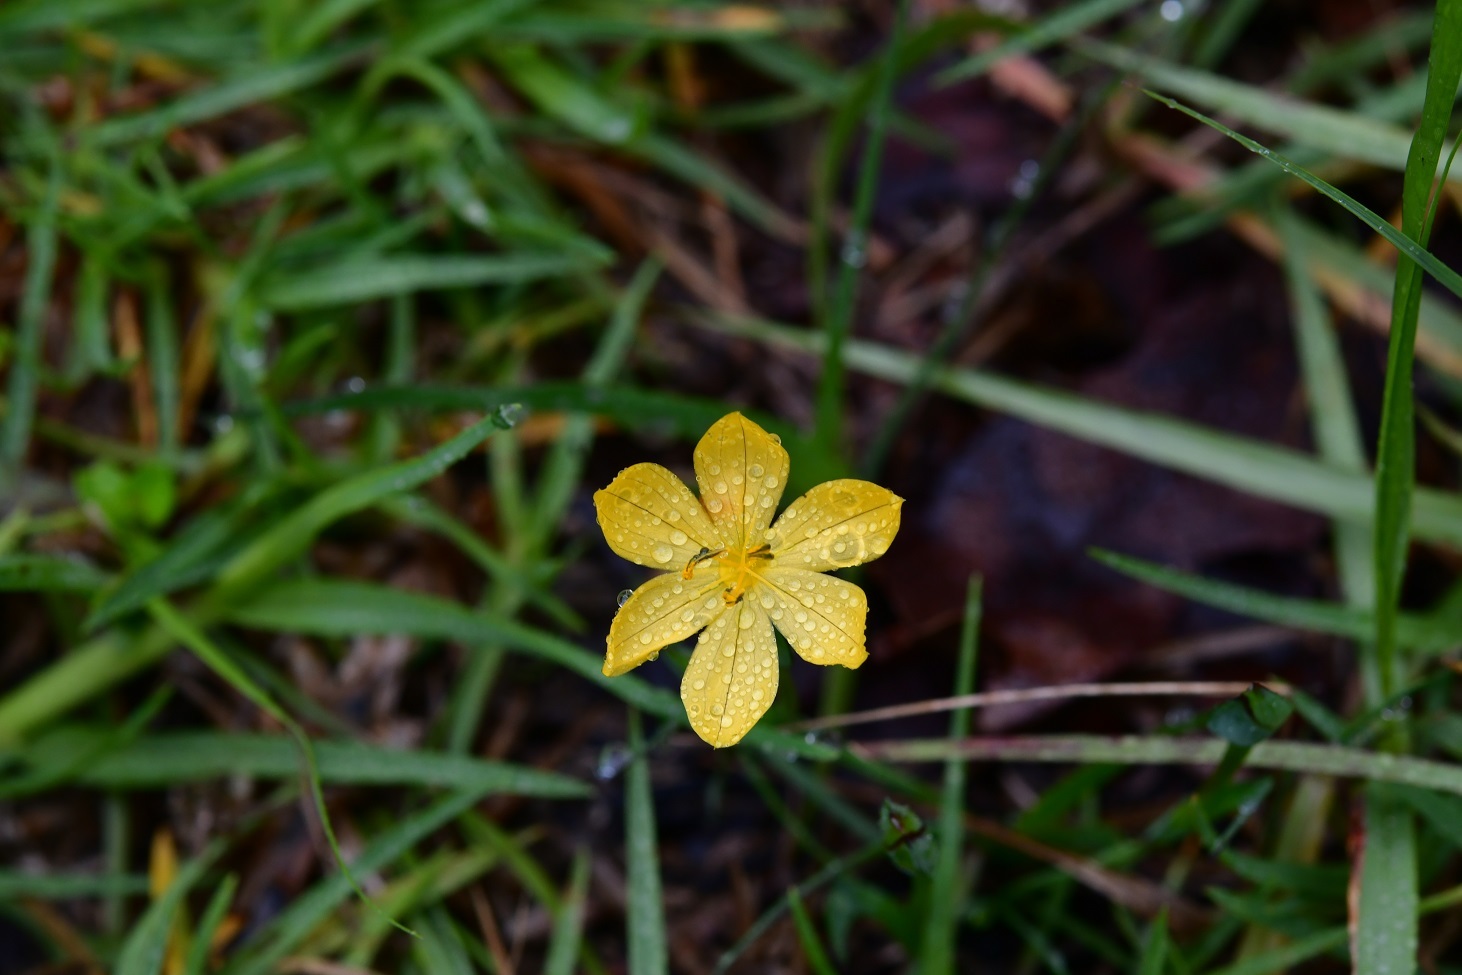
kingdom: Plantae
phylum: Tracheophyta
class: Liliopsida
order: Asparagales
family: Iridaceae
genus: Sisyrinchium
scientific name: Sisyrinchium tenuifolium
